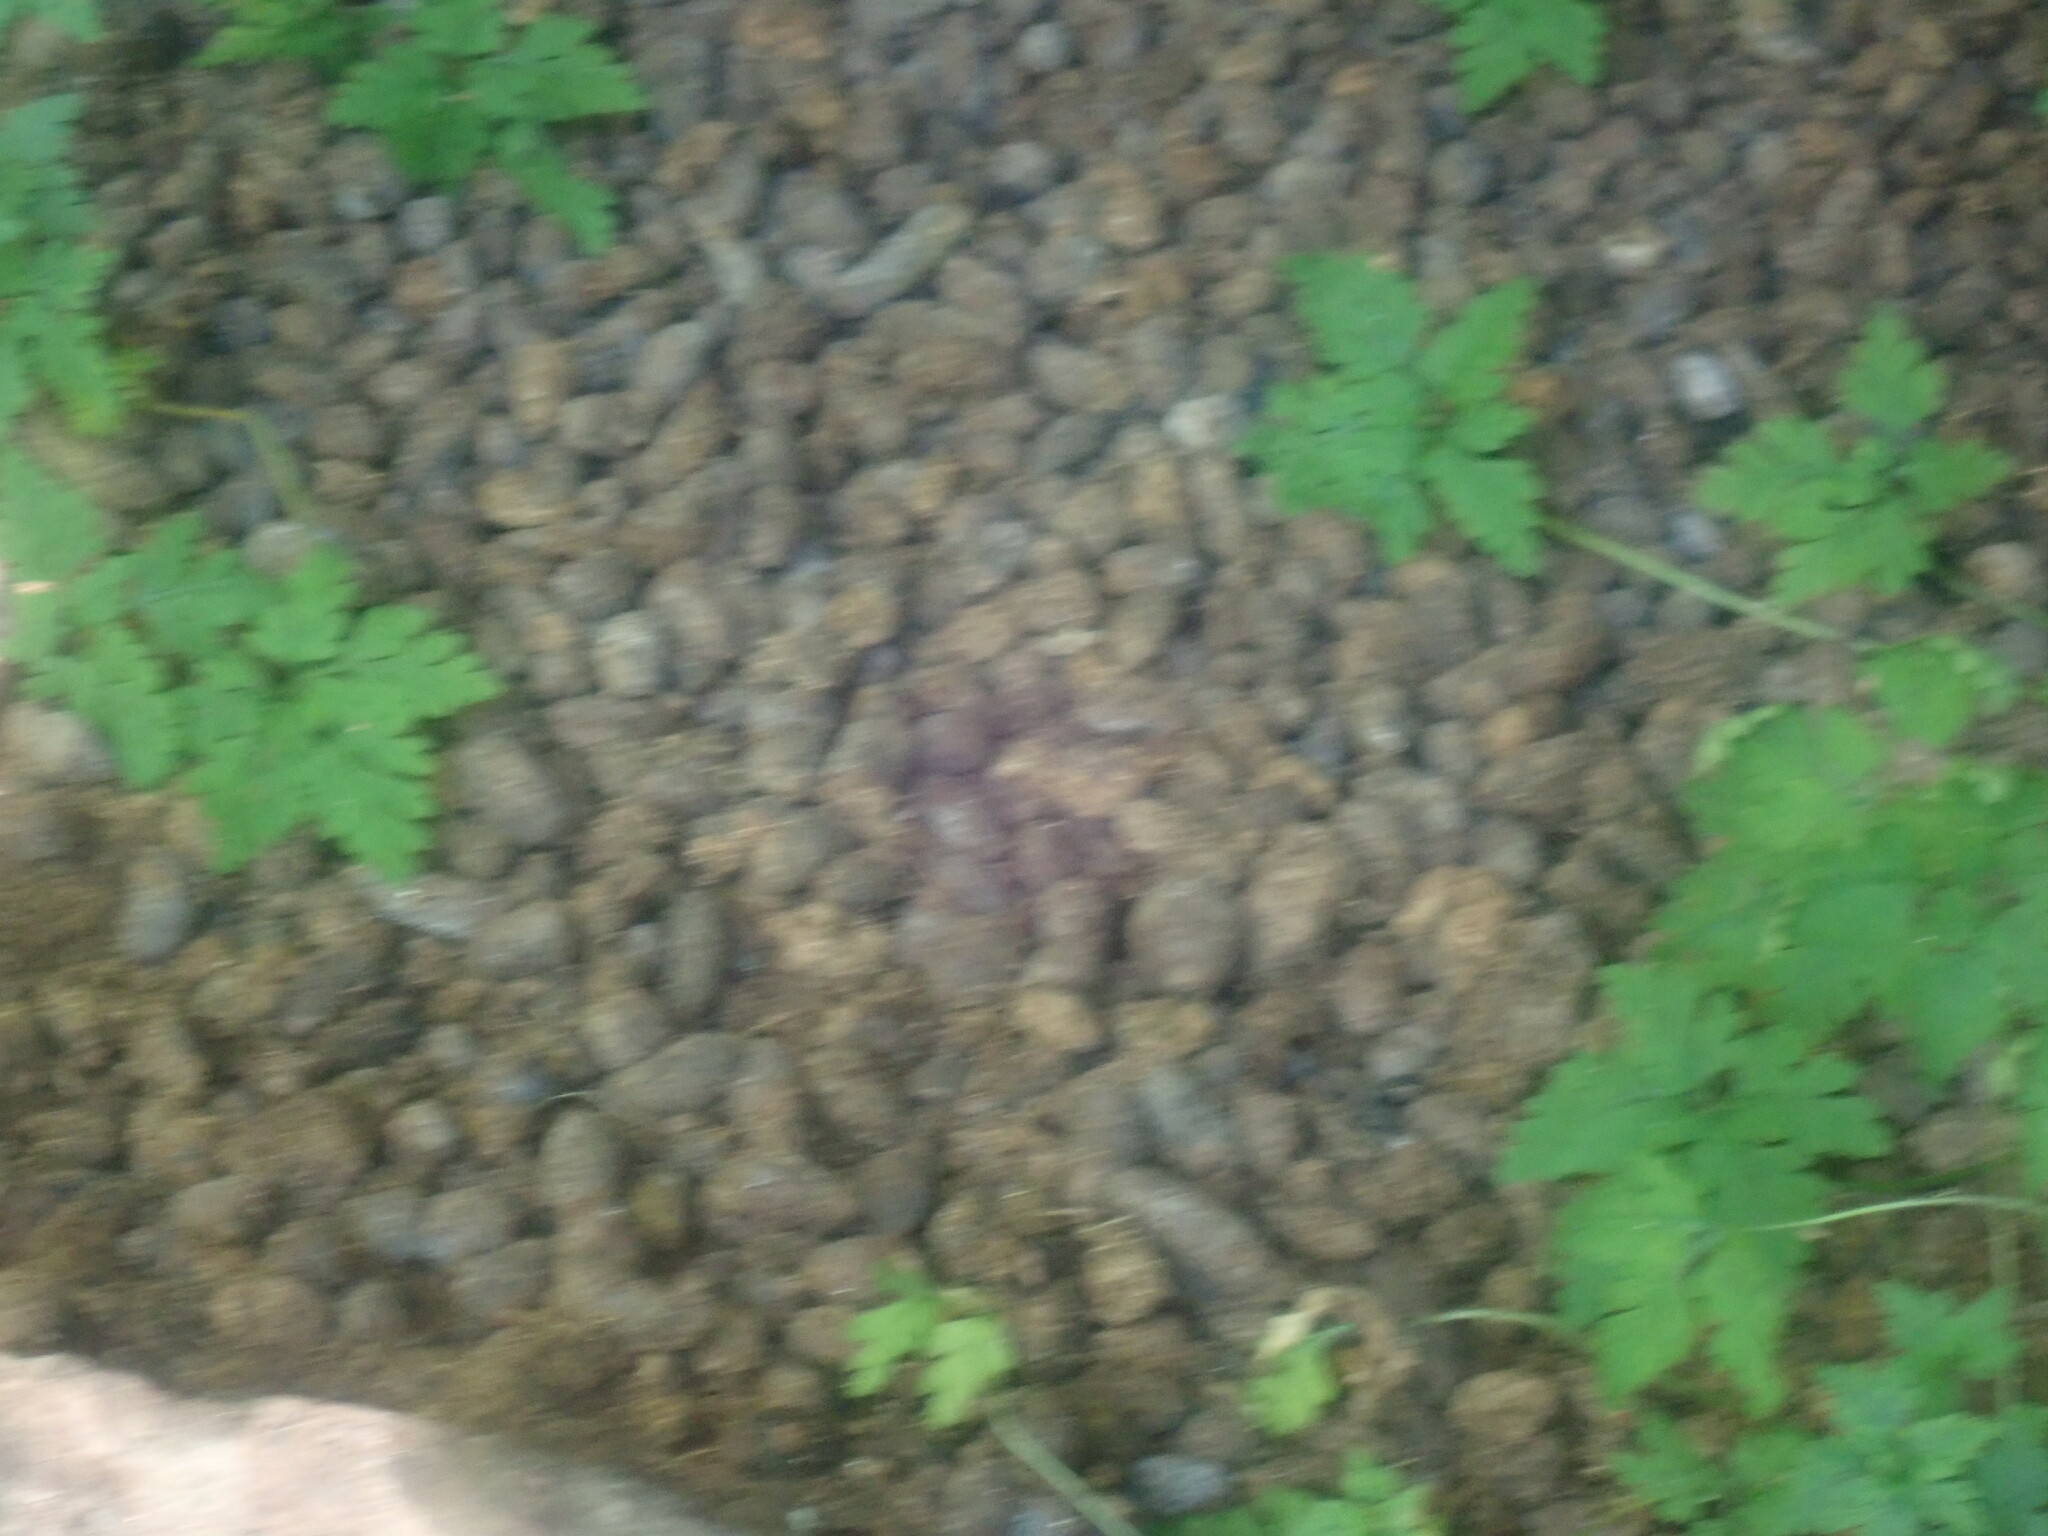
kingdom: Animalia
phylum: Chordata
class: Mammalia
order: Rodentia
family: Erethizontidae
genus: Erethizon
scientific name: Erethizon dorsatus
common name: North american porcupine
